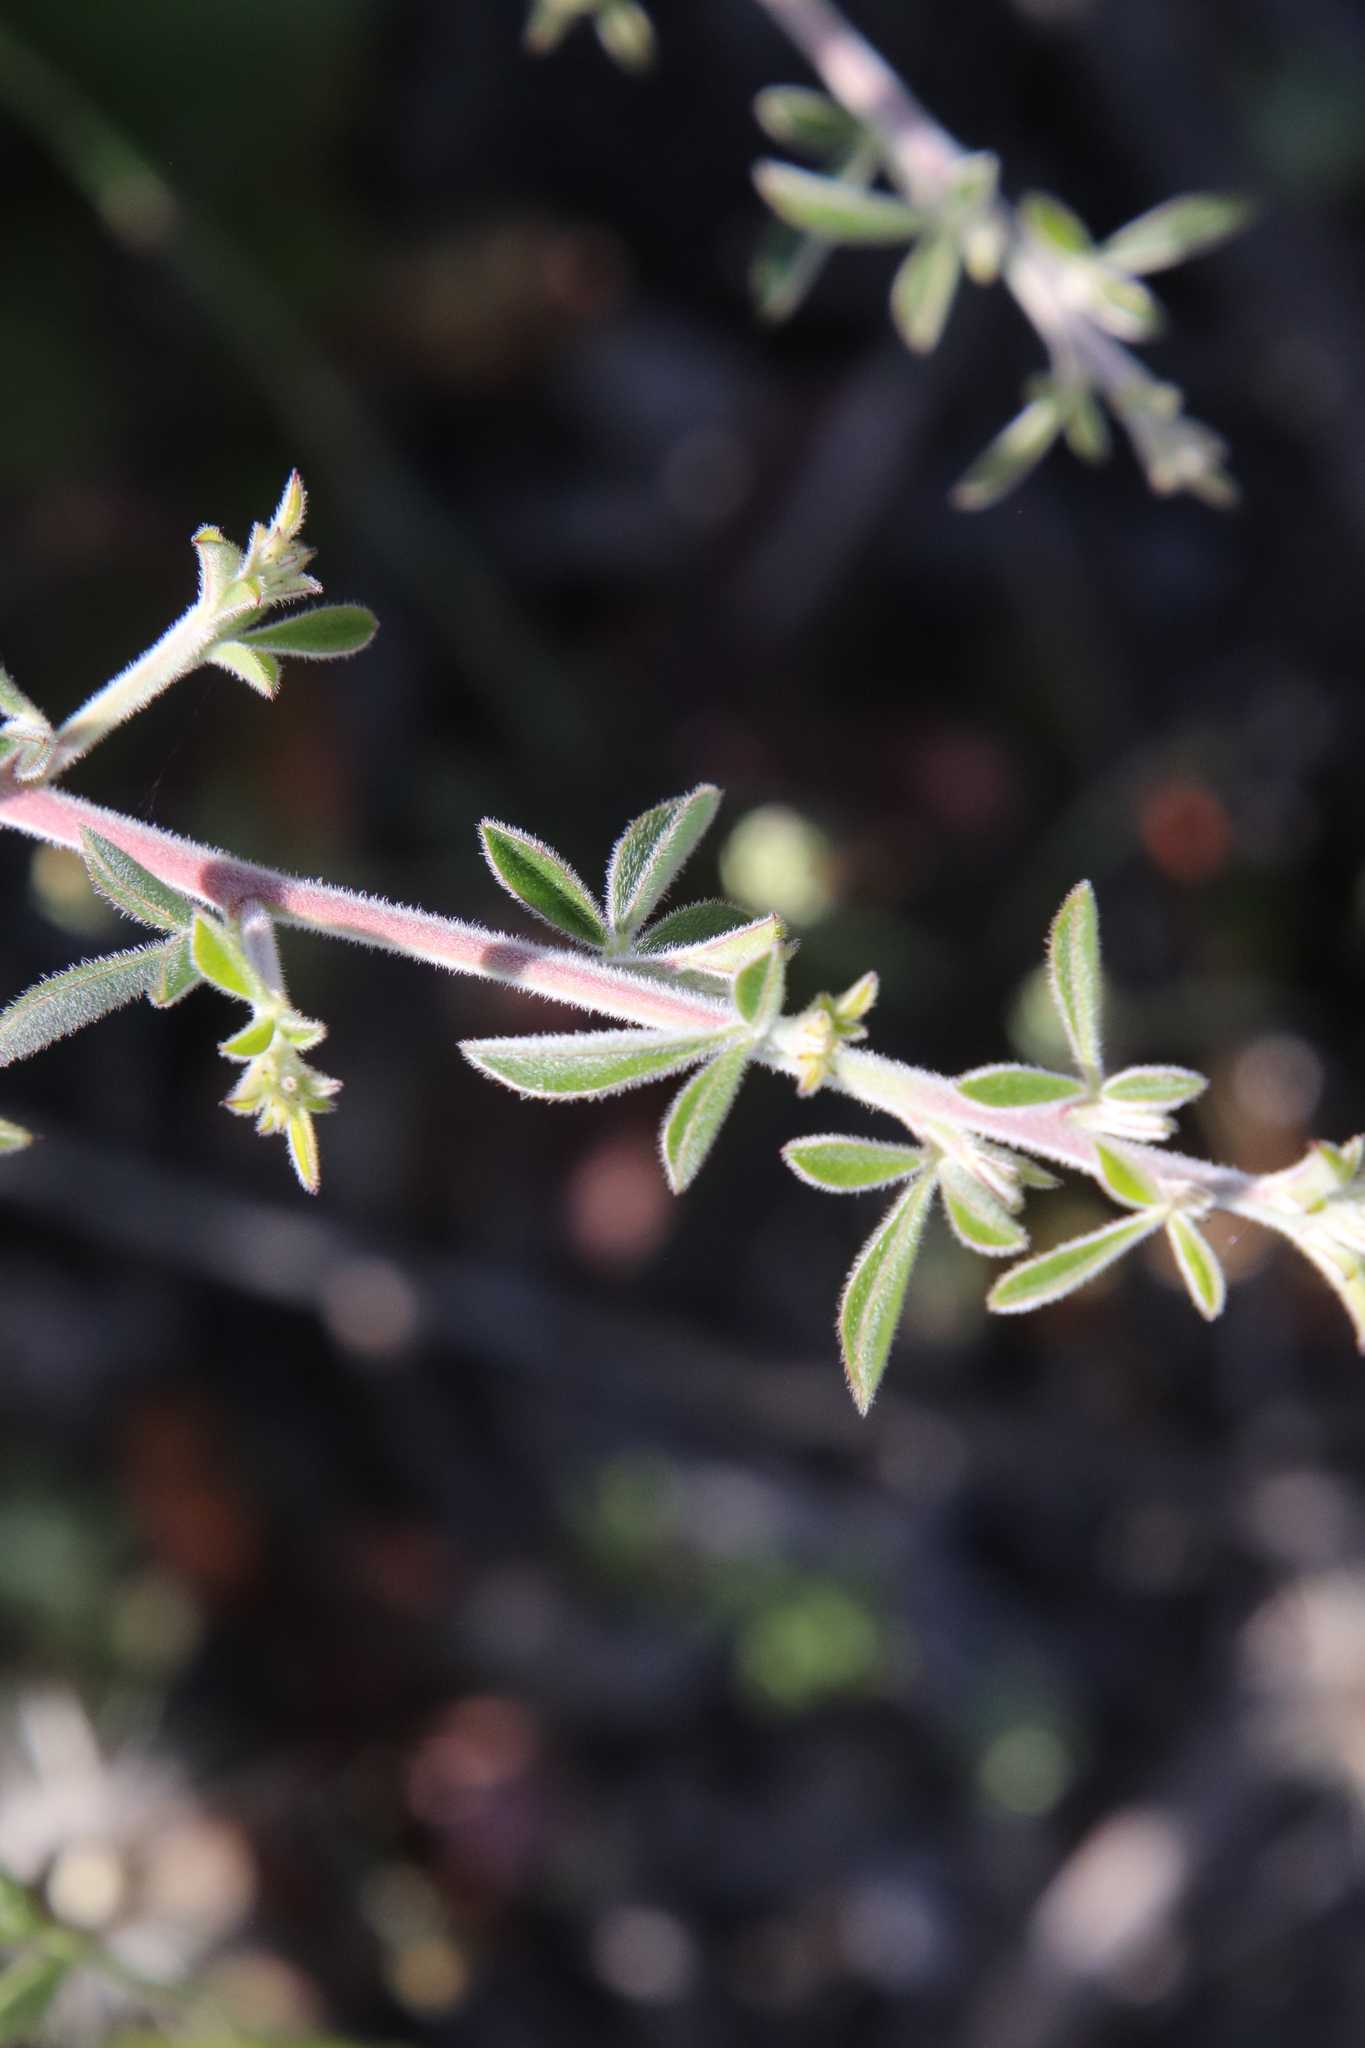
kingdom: Plantae
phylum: Tracheophyta
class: Magnoliopsida
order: Fabales
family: Fabaceae
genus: Pickeringia
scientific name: Pickeringia montana
